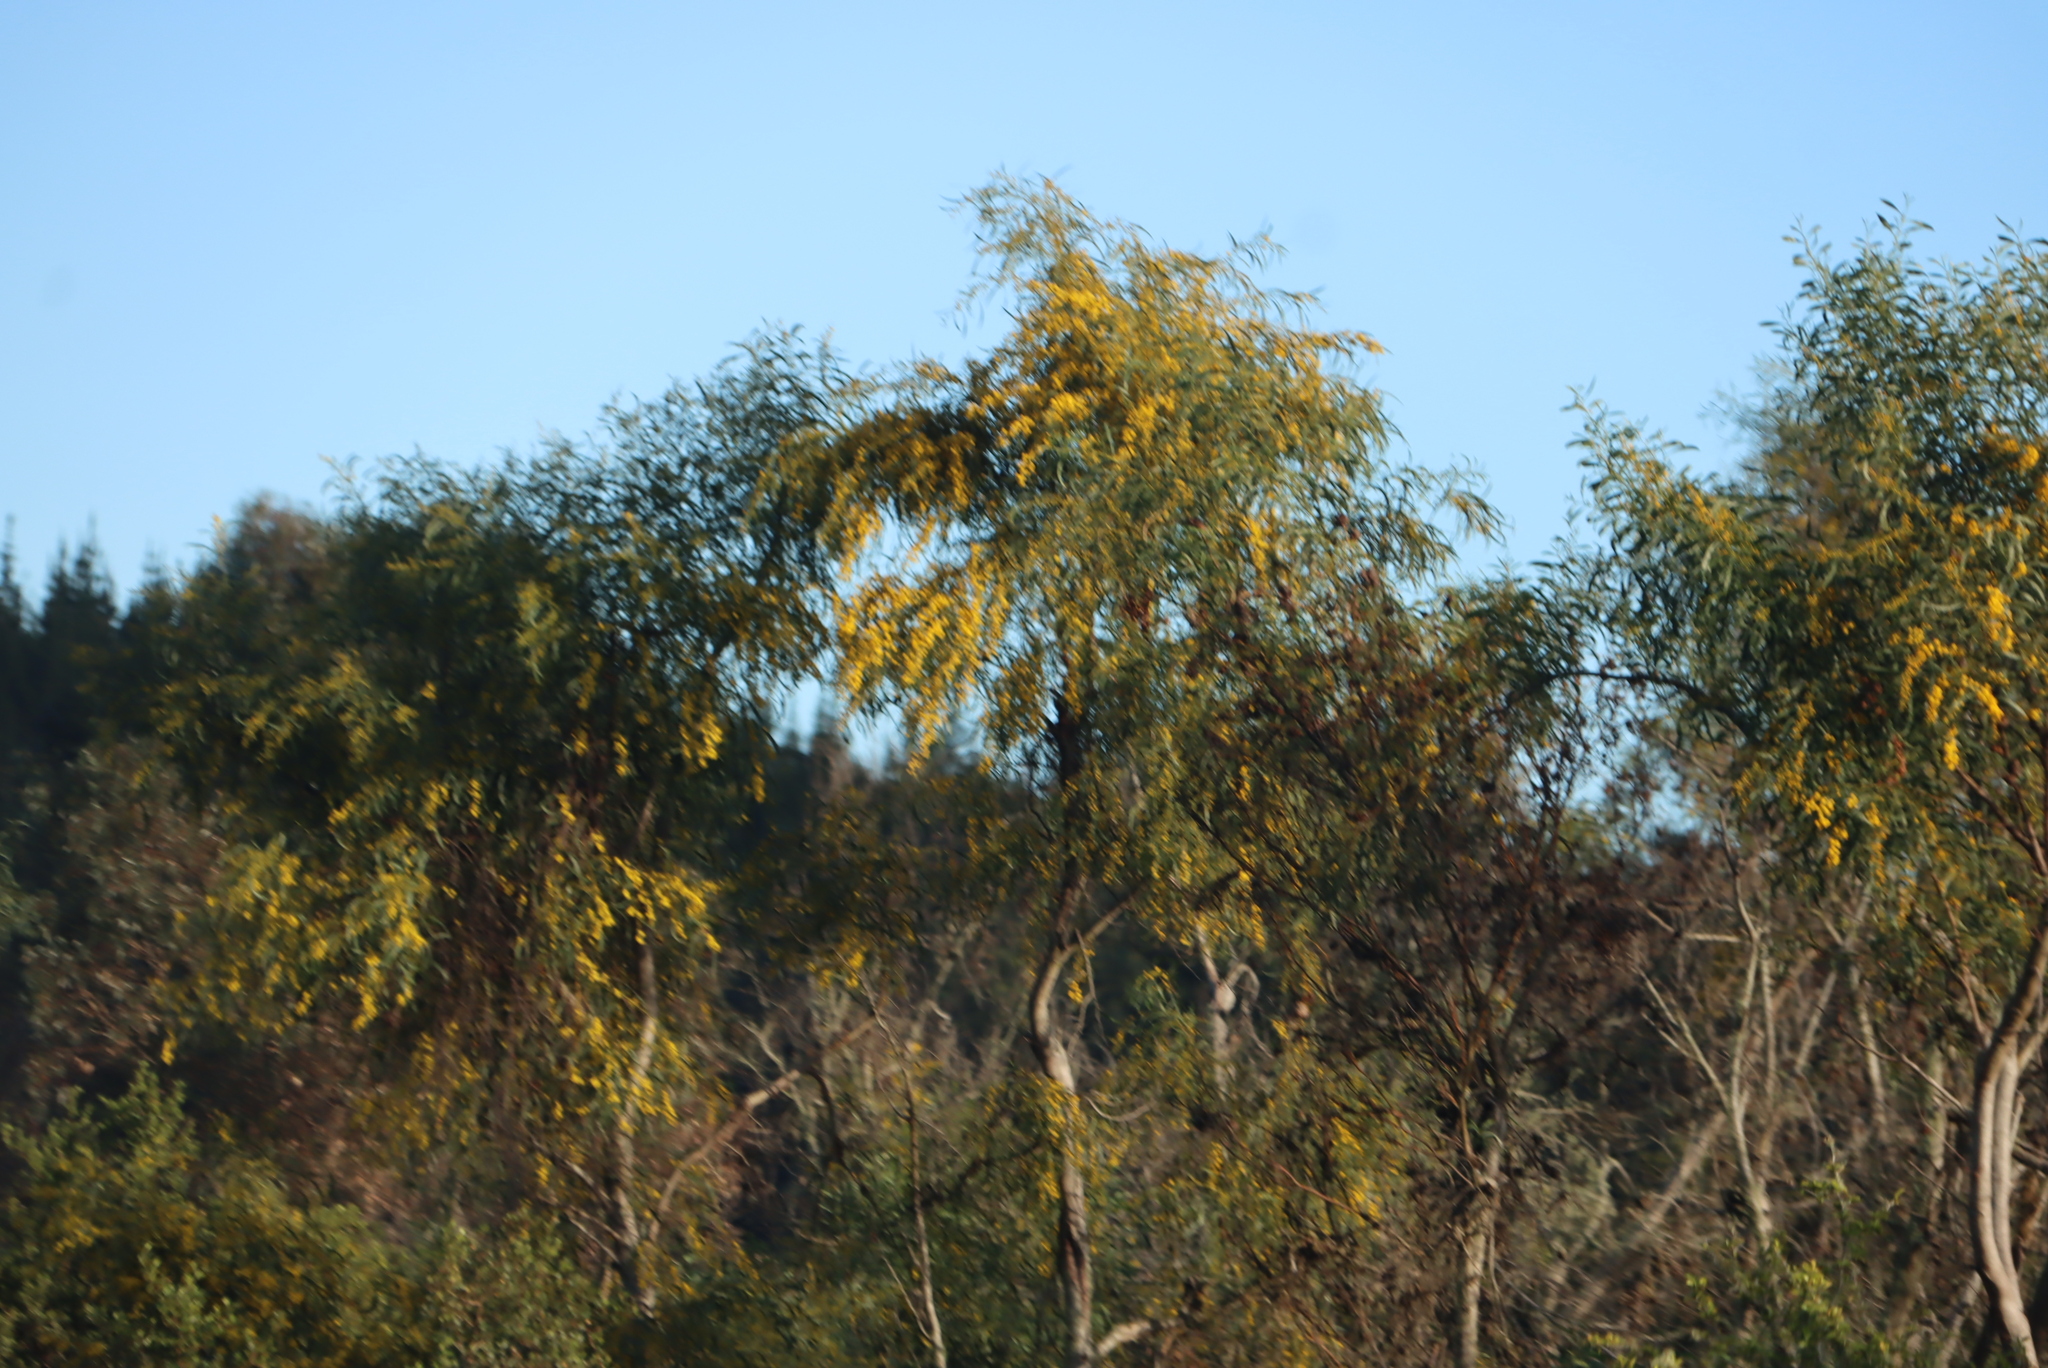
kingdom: Plantae
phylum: Tracheophyta
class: Magnoliopsida
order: Fabales
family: Fabaceae
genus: Acacia
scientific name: Acacia saligna
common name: Orange wattle
